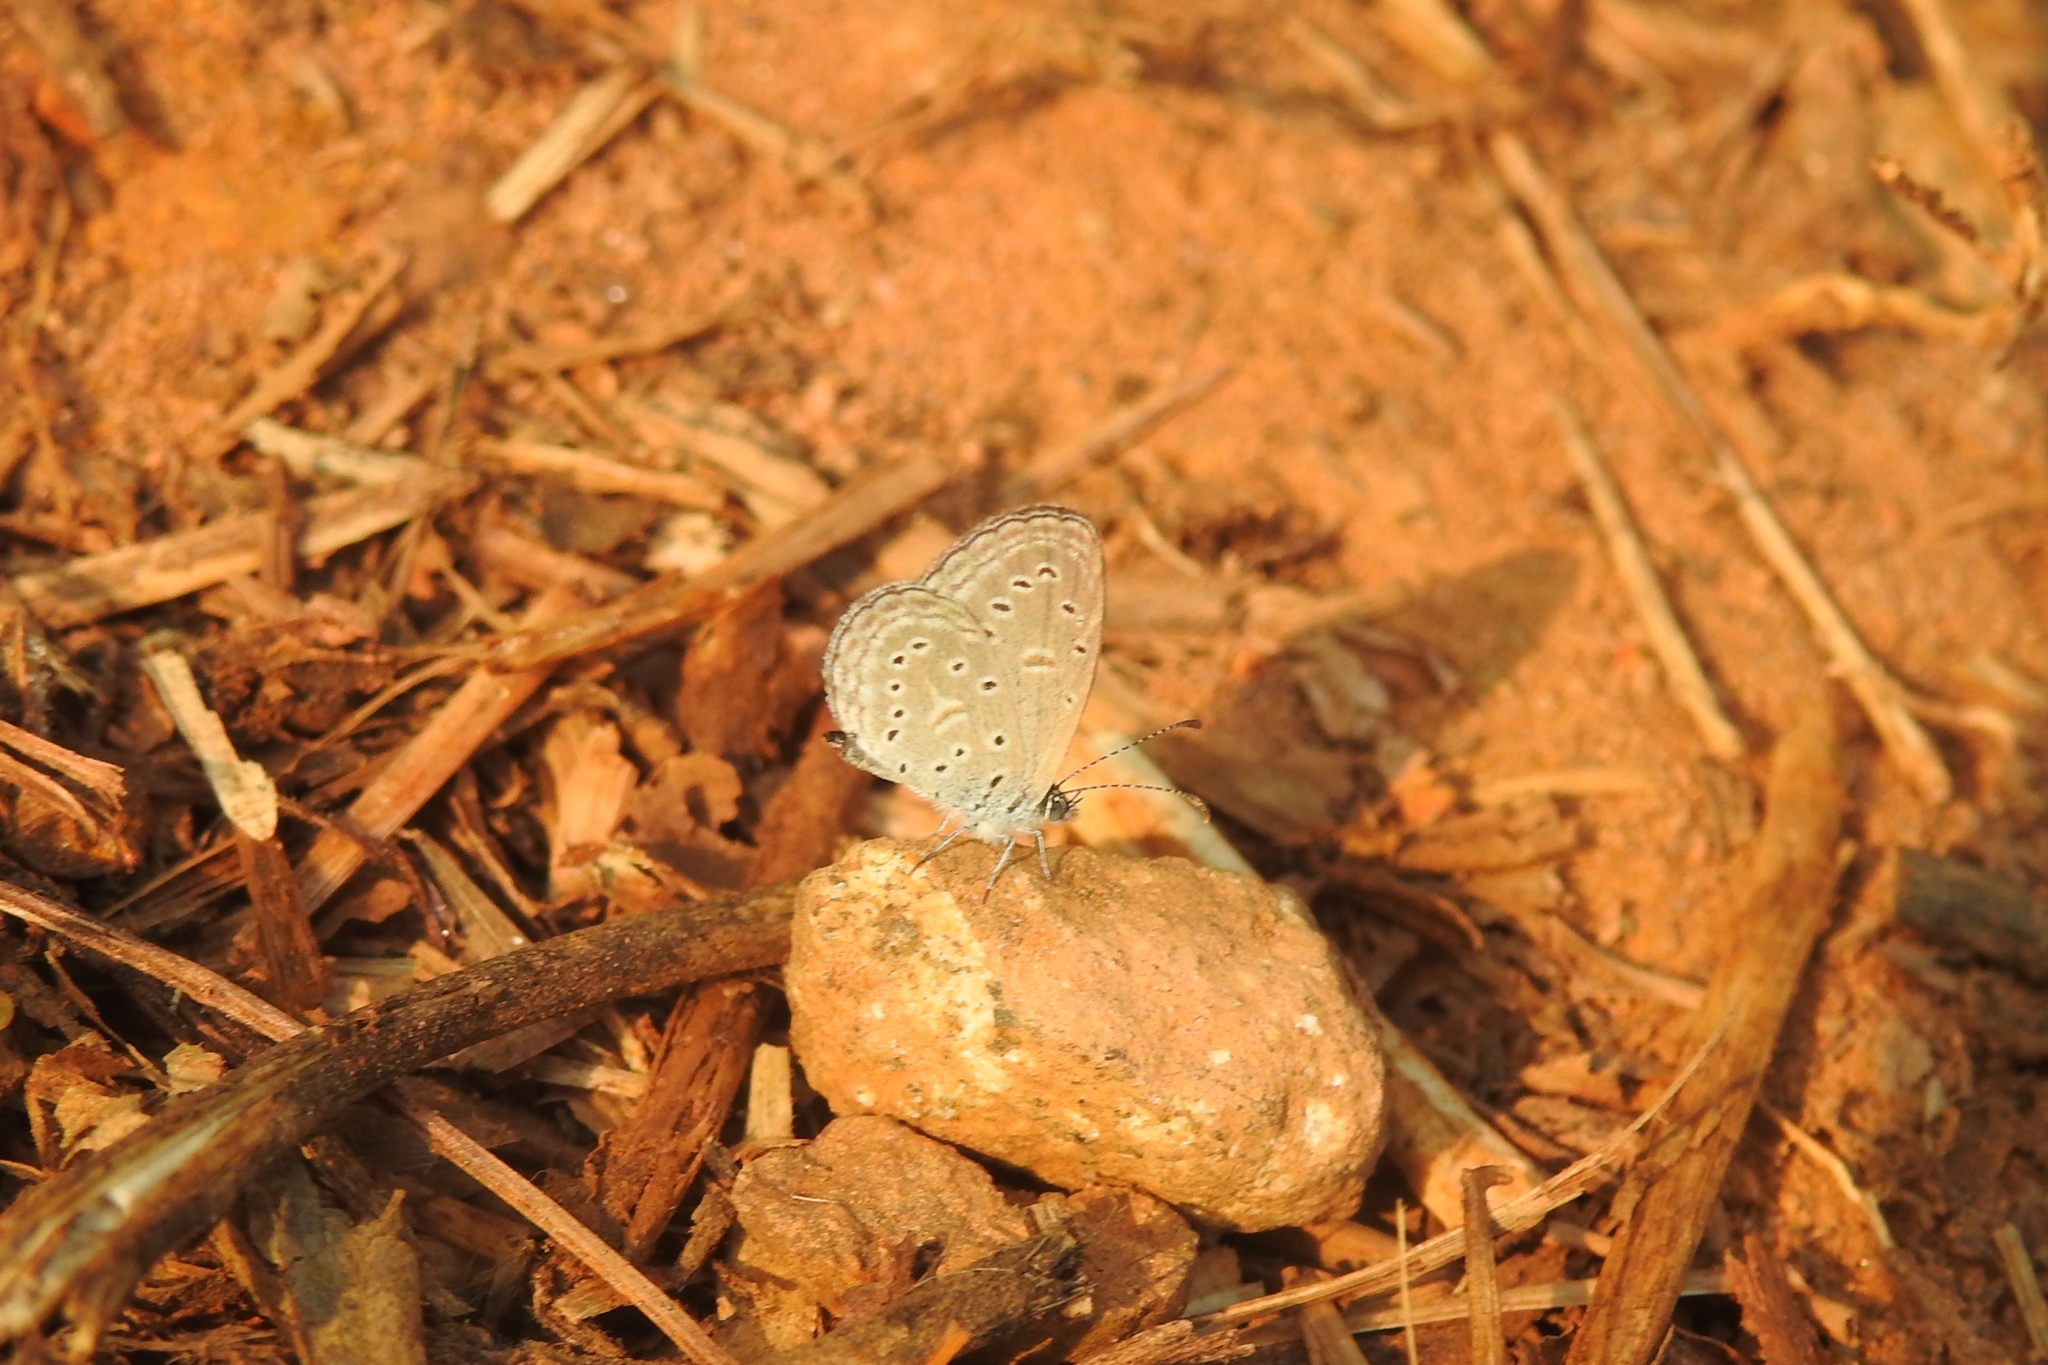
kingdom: Animalia
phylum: Arthropoda
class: Insecta
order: Lepidoptera
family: Lycaenidae
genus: Zizula
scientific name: Zizula hylax
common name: Gaika blue
